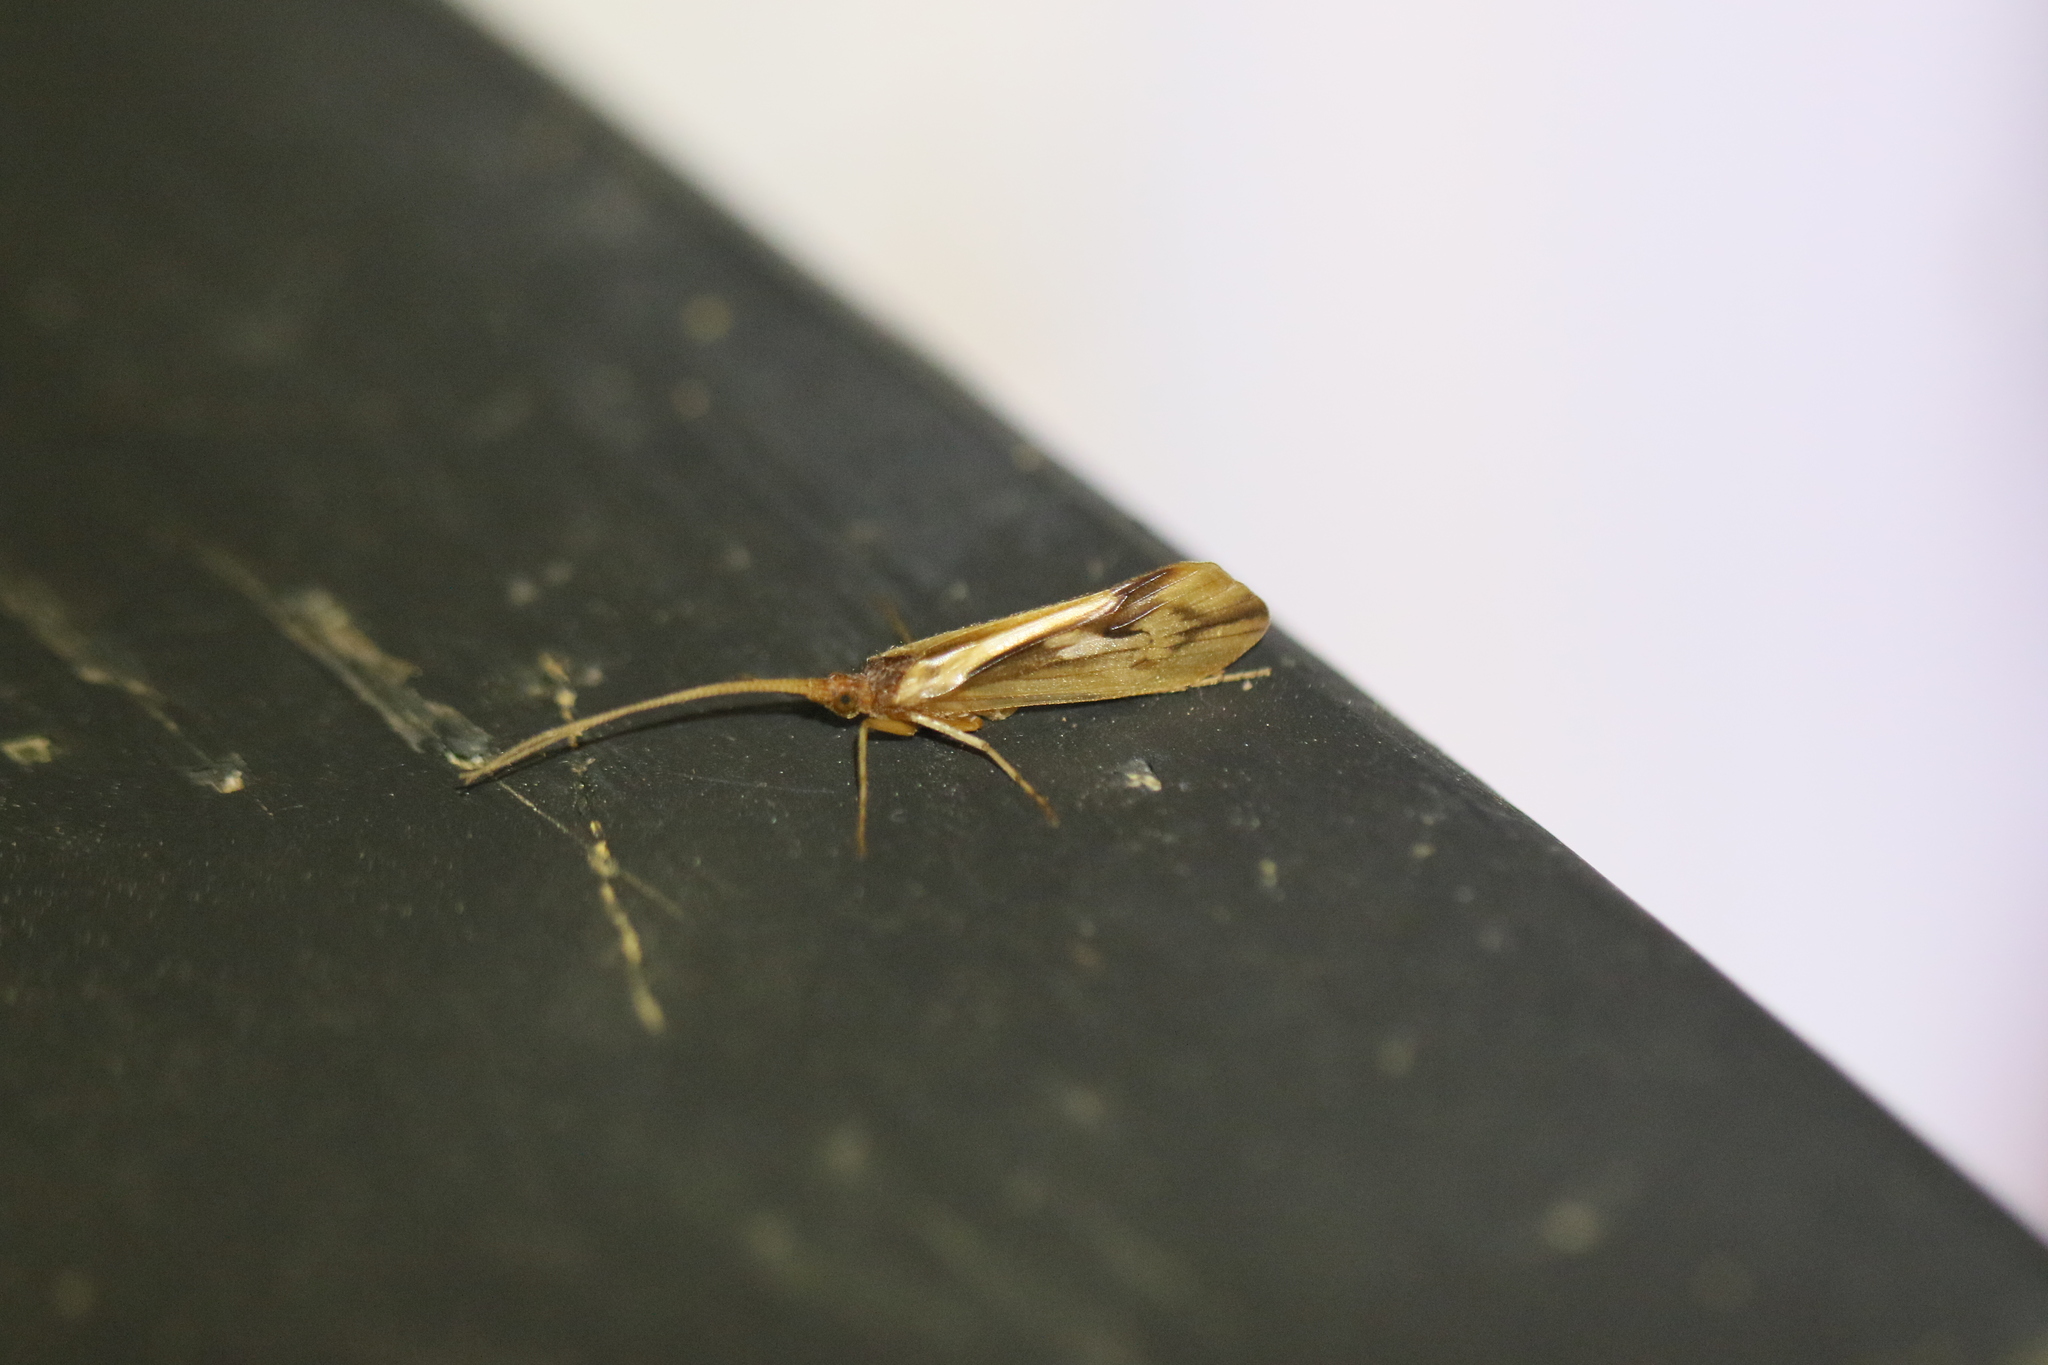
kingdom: Animalia
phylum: Arthropoda
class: Insecta
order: Trichoptera
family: Limnephilidae
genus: Platycentropus
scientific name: Platycentropus radiatus
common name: Chocolate-and-cream sedge
